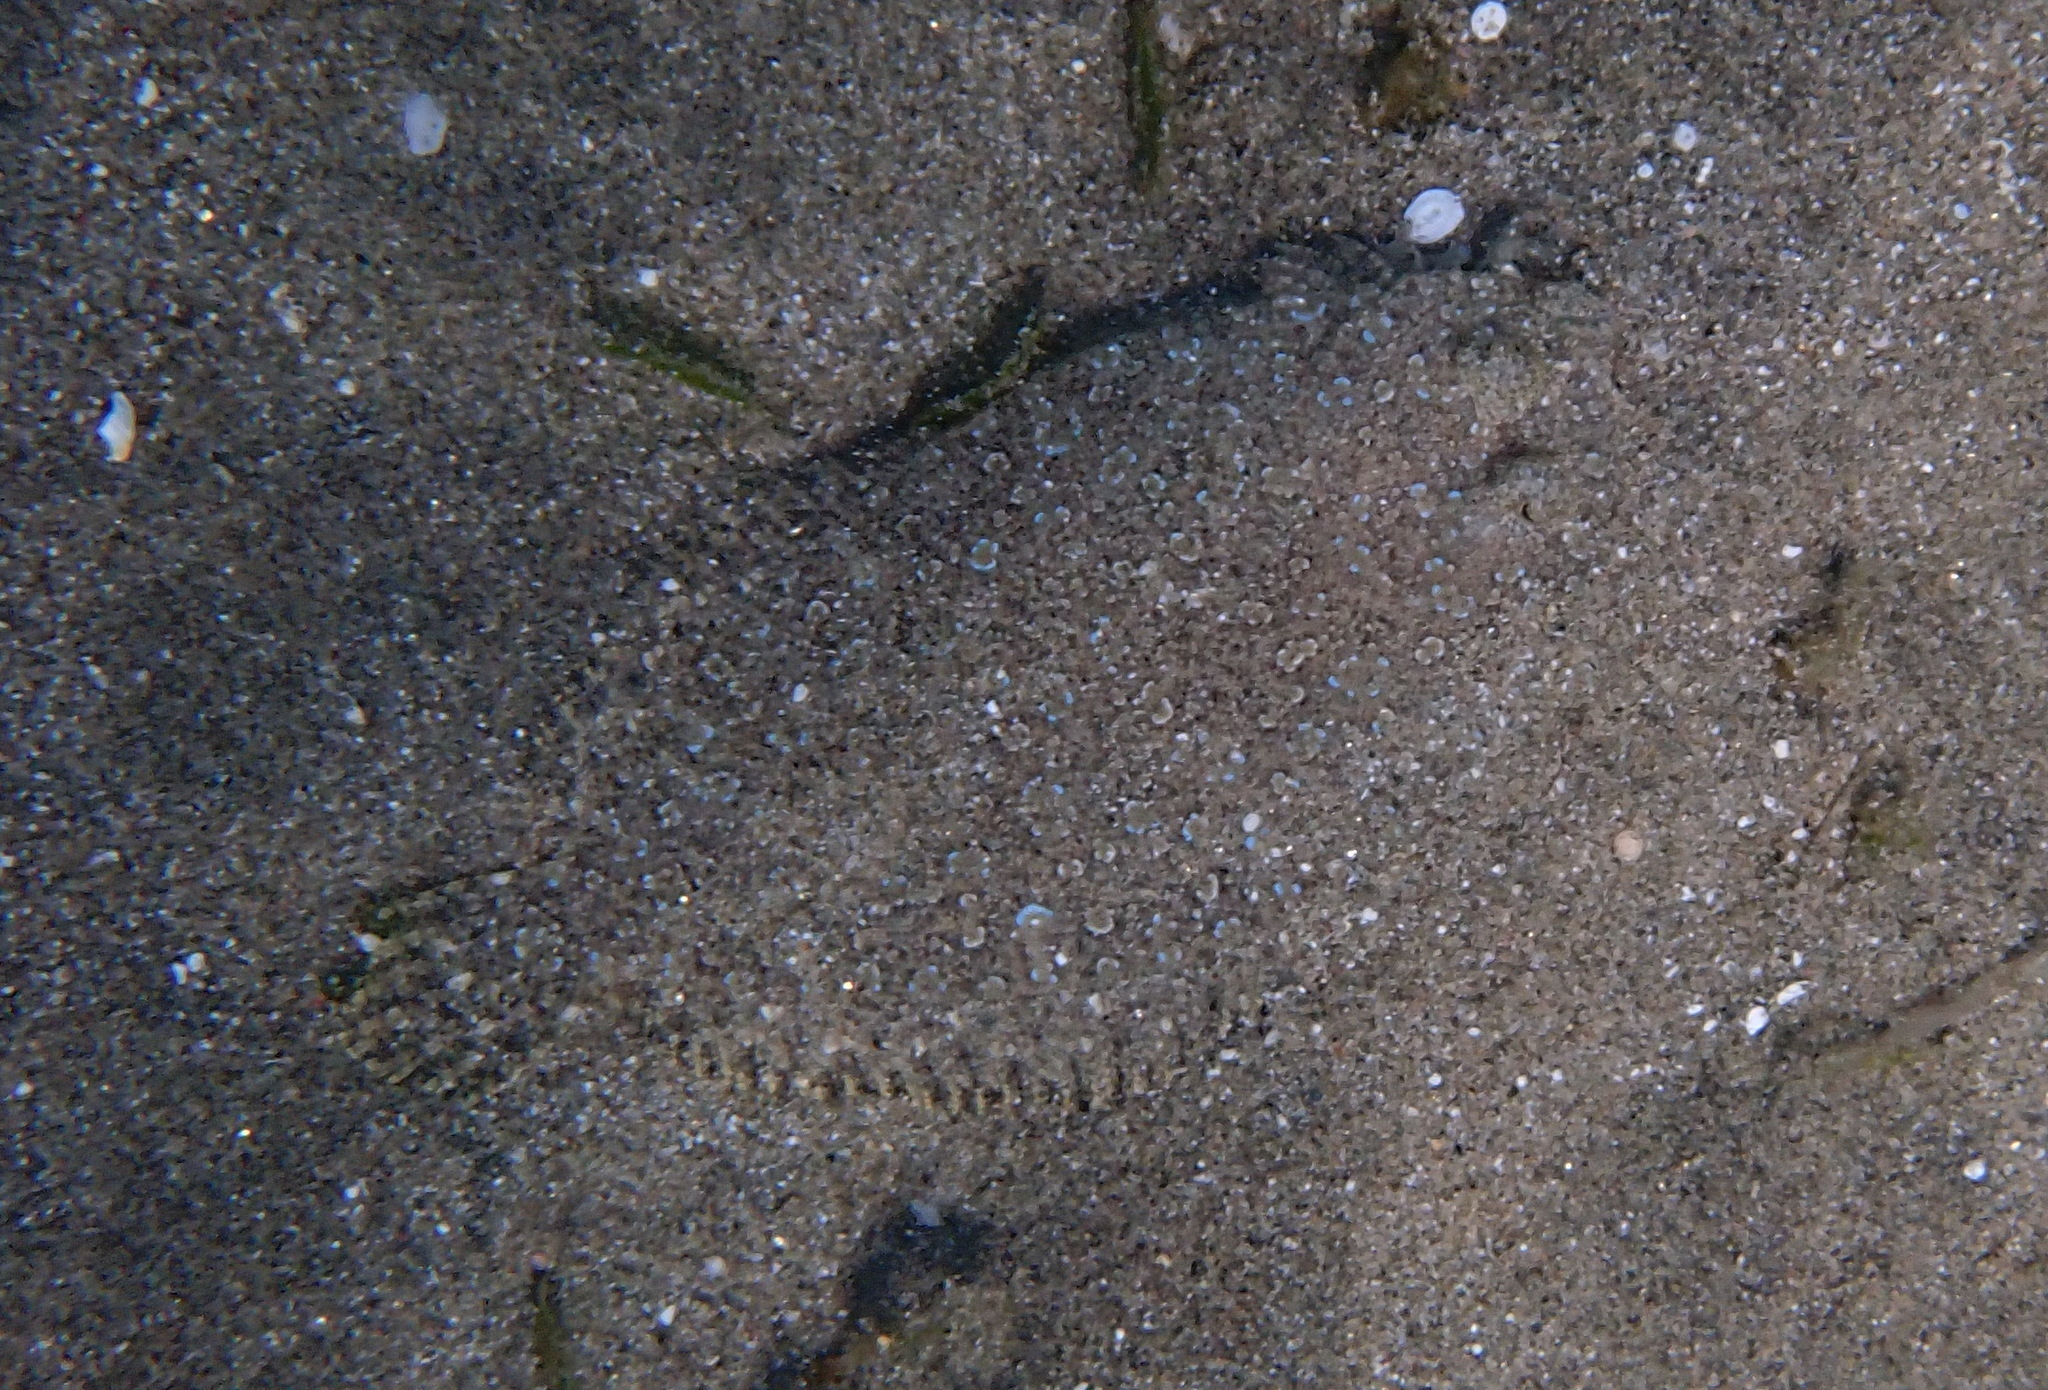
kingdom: Animalia
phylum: Chordata
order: Pleuronectiformes
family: Bothidae
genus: Bothus
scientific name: Bothus pantherinus
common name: Leopard flounder
